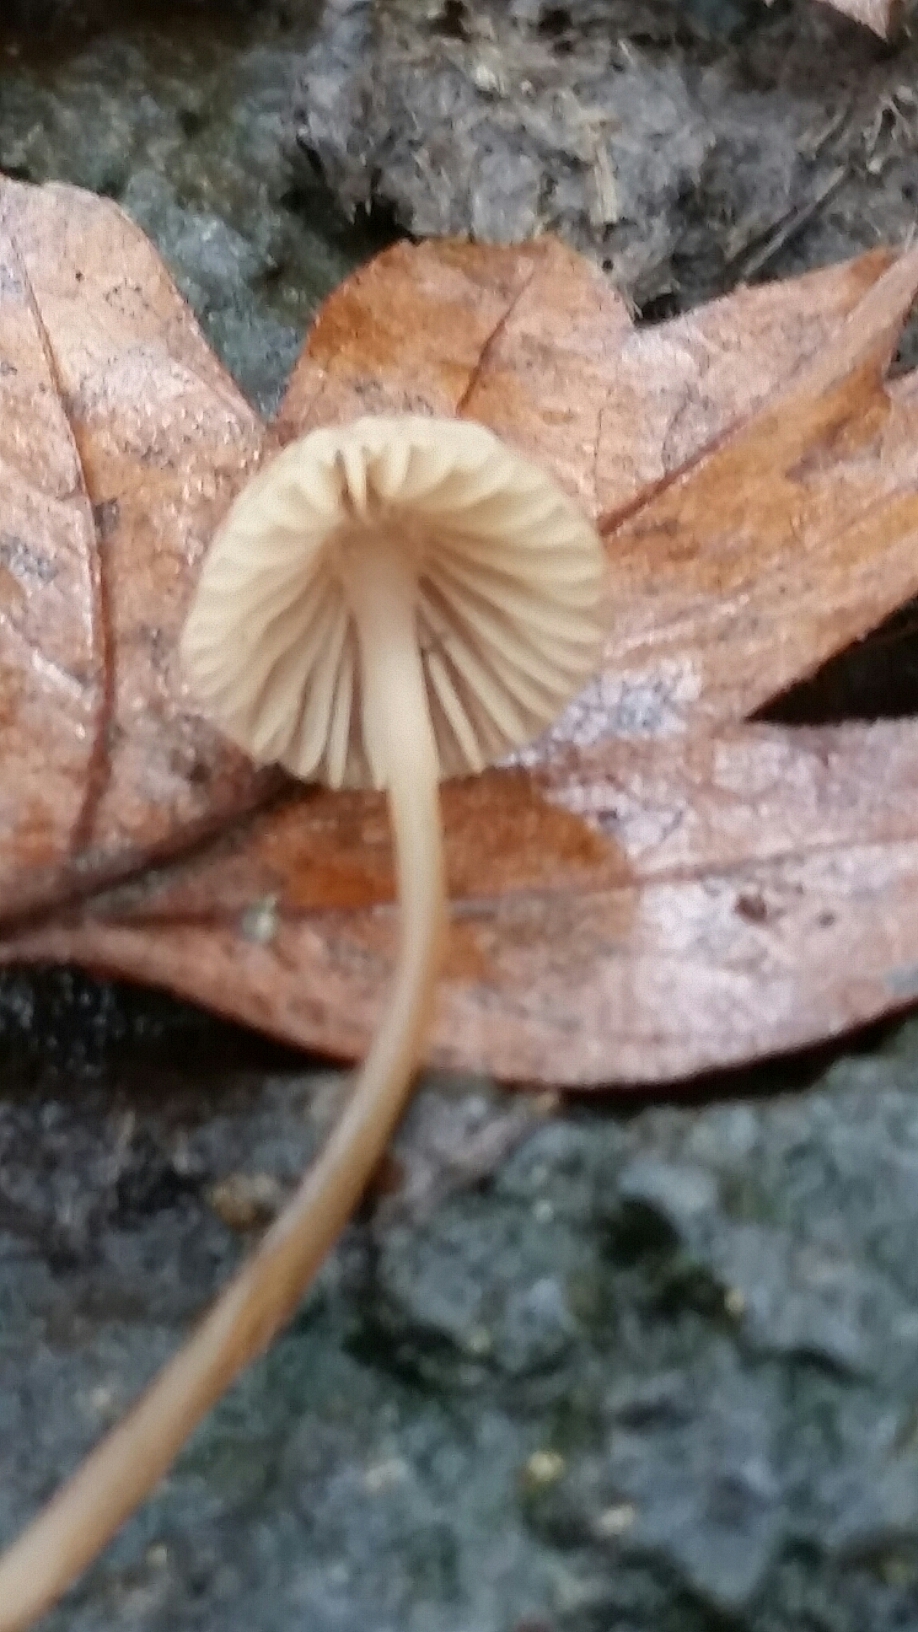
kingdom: Fungi
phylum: Basidiomycota
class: Agaricomycetes
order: Agaricales
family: Mycenaceae
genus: Mycena
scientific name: Mycena sanguinolenta
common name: Bleeding bonnet
